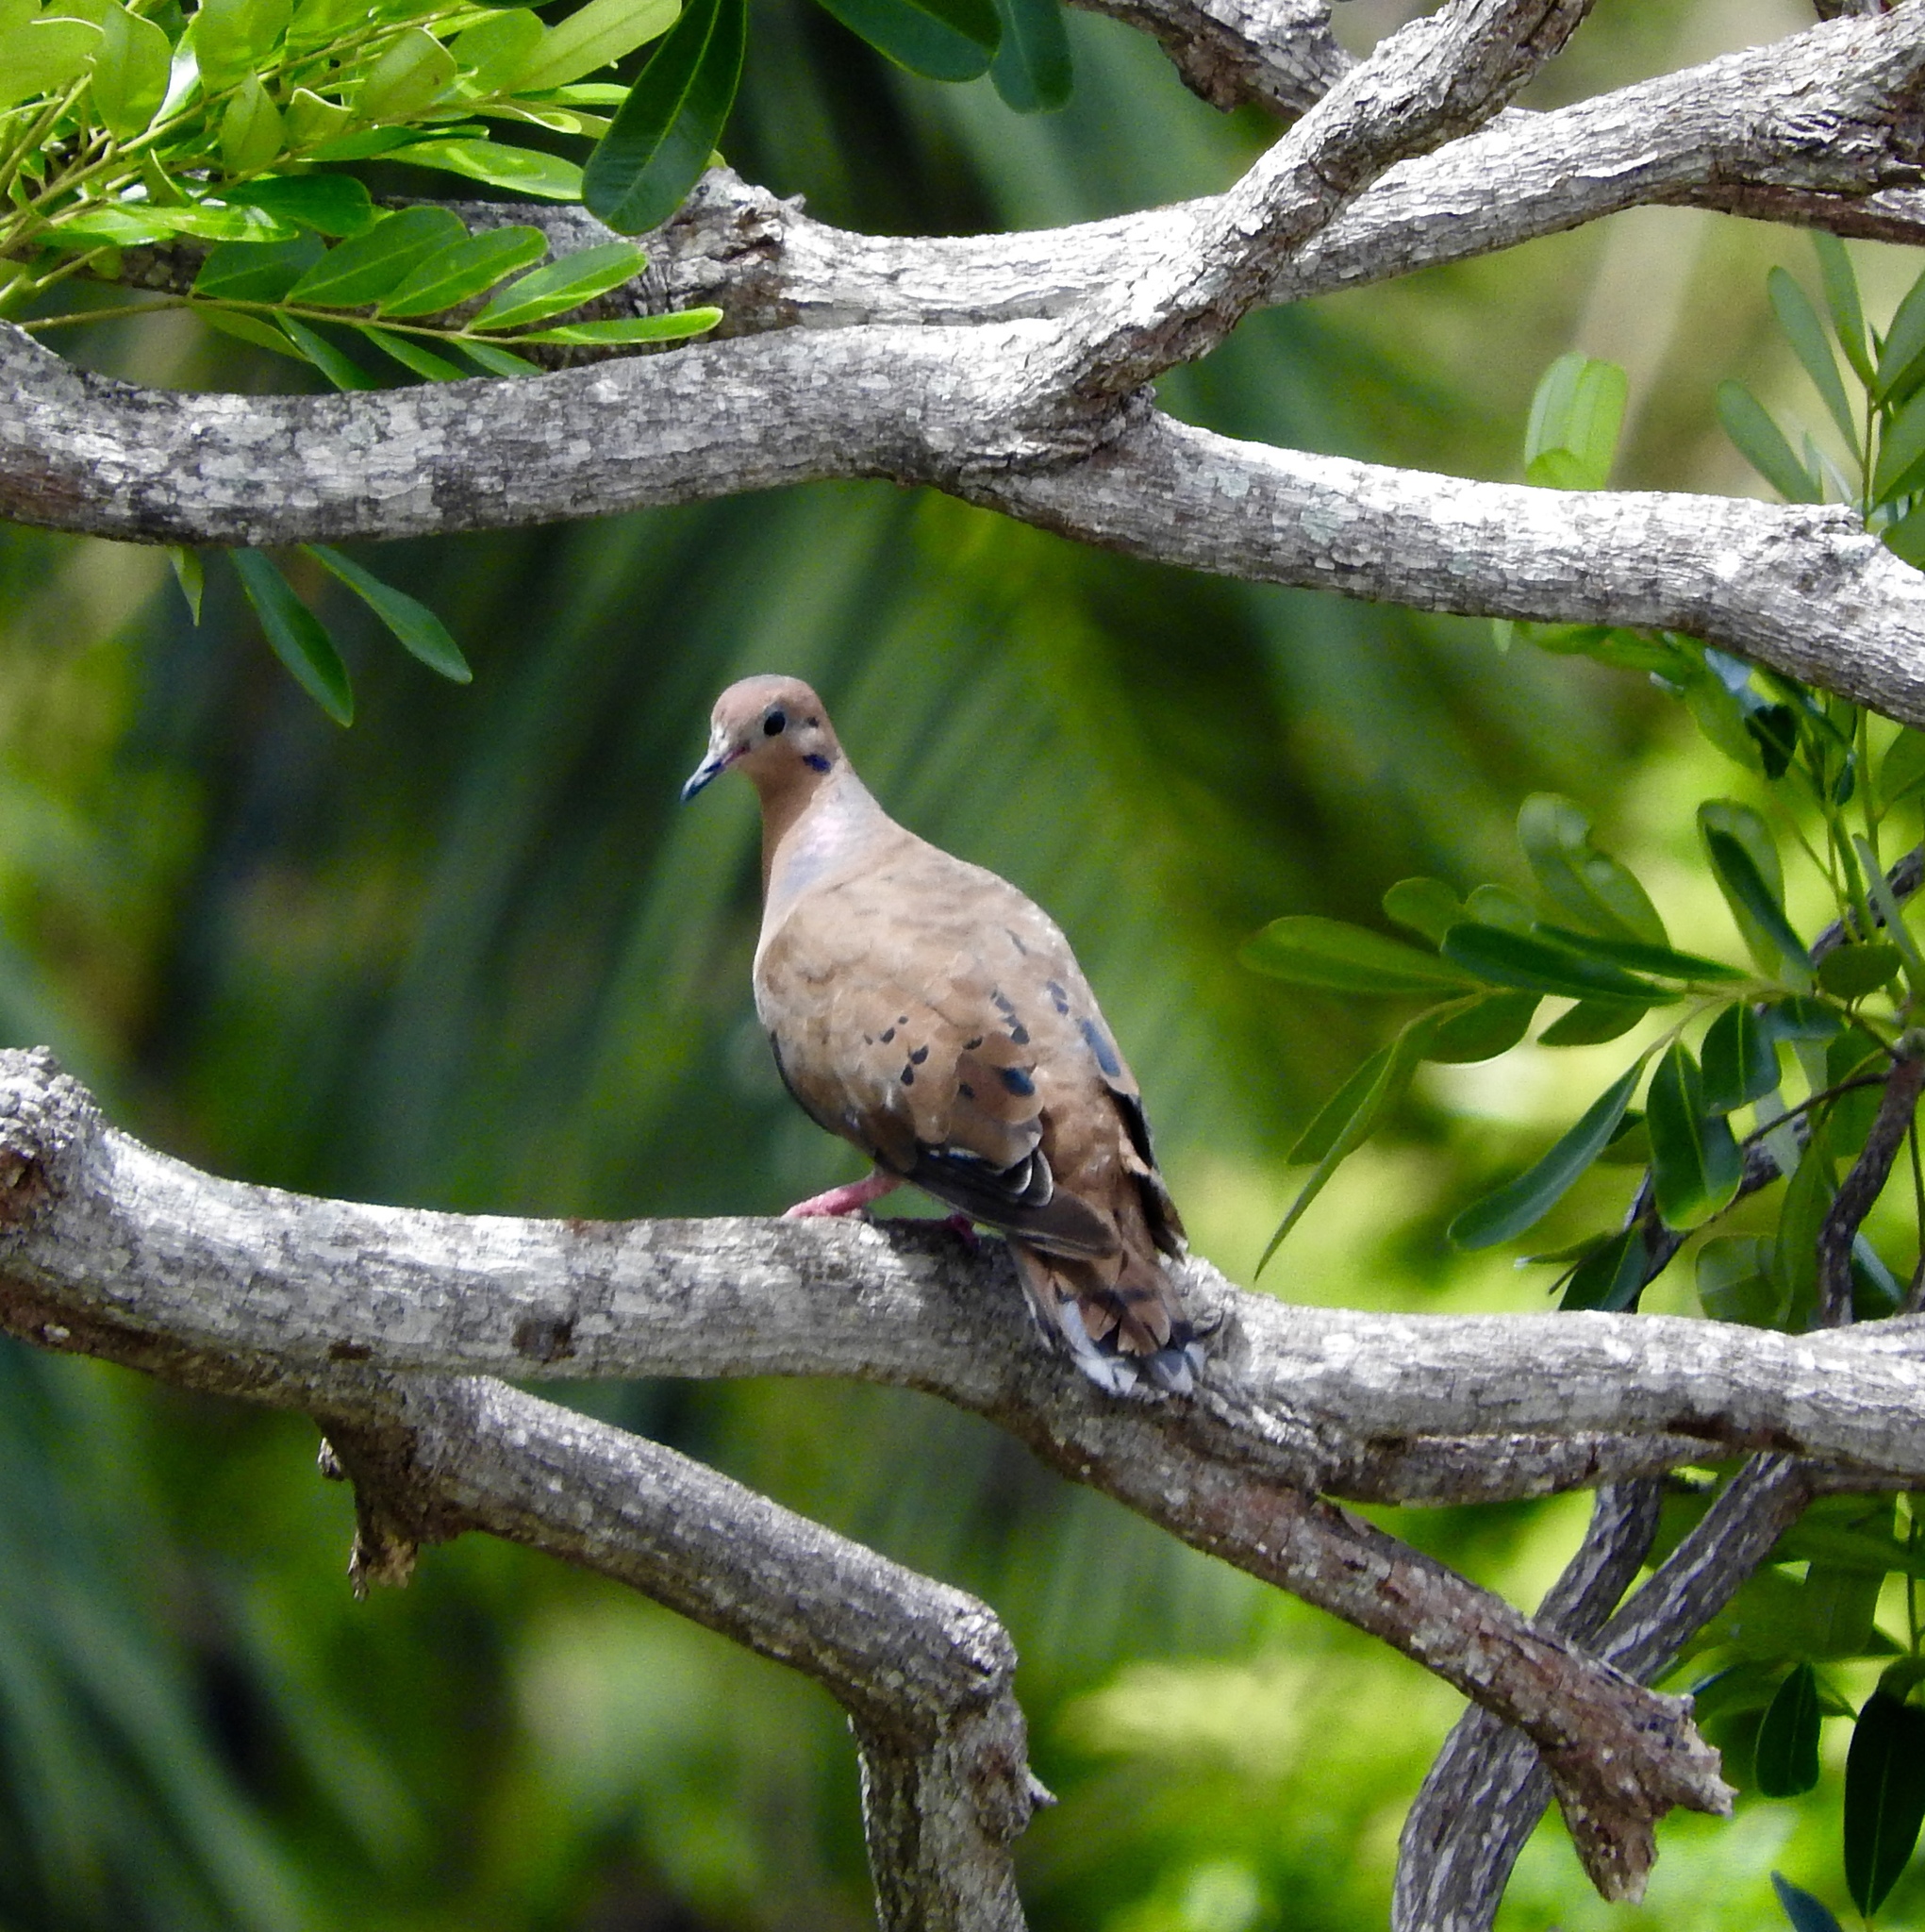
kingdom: Animalia
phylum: Chordata
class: Aves
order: Columbiformes
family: Columbidae
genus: Zenaida
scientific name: Zenaida aurita
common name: Zenaida dove
